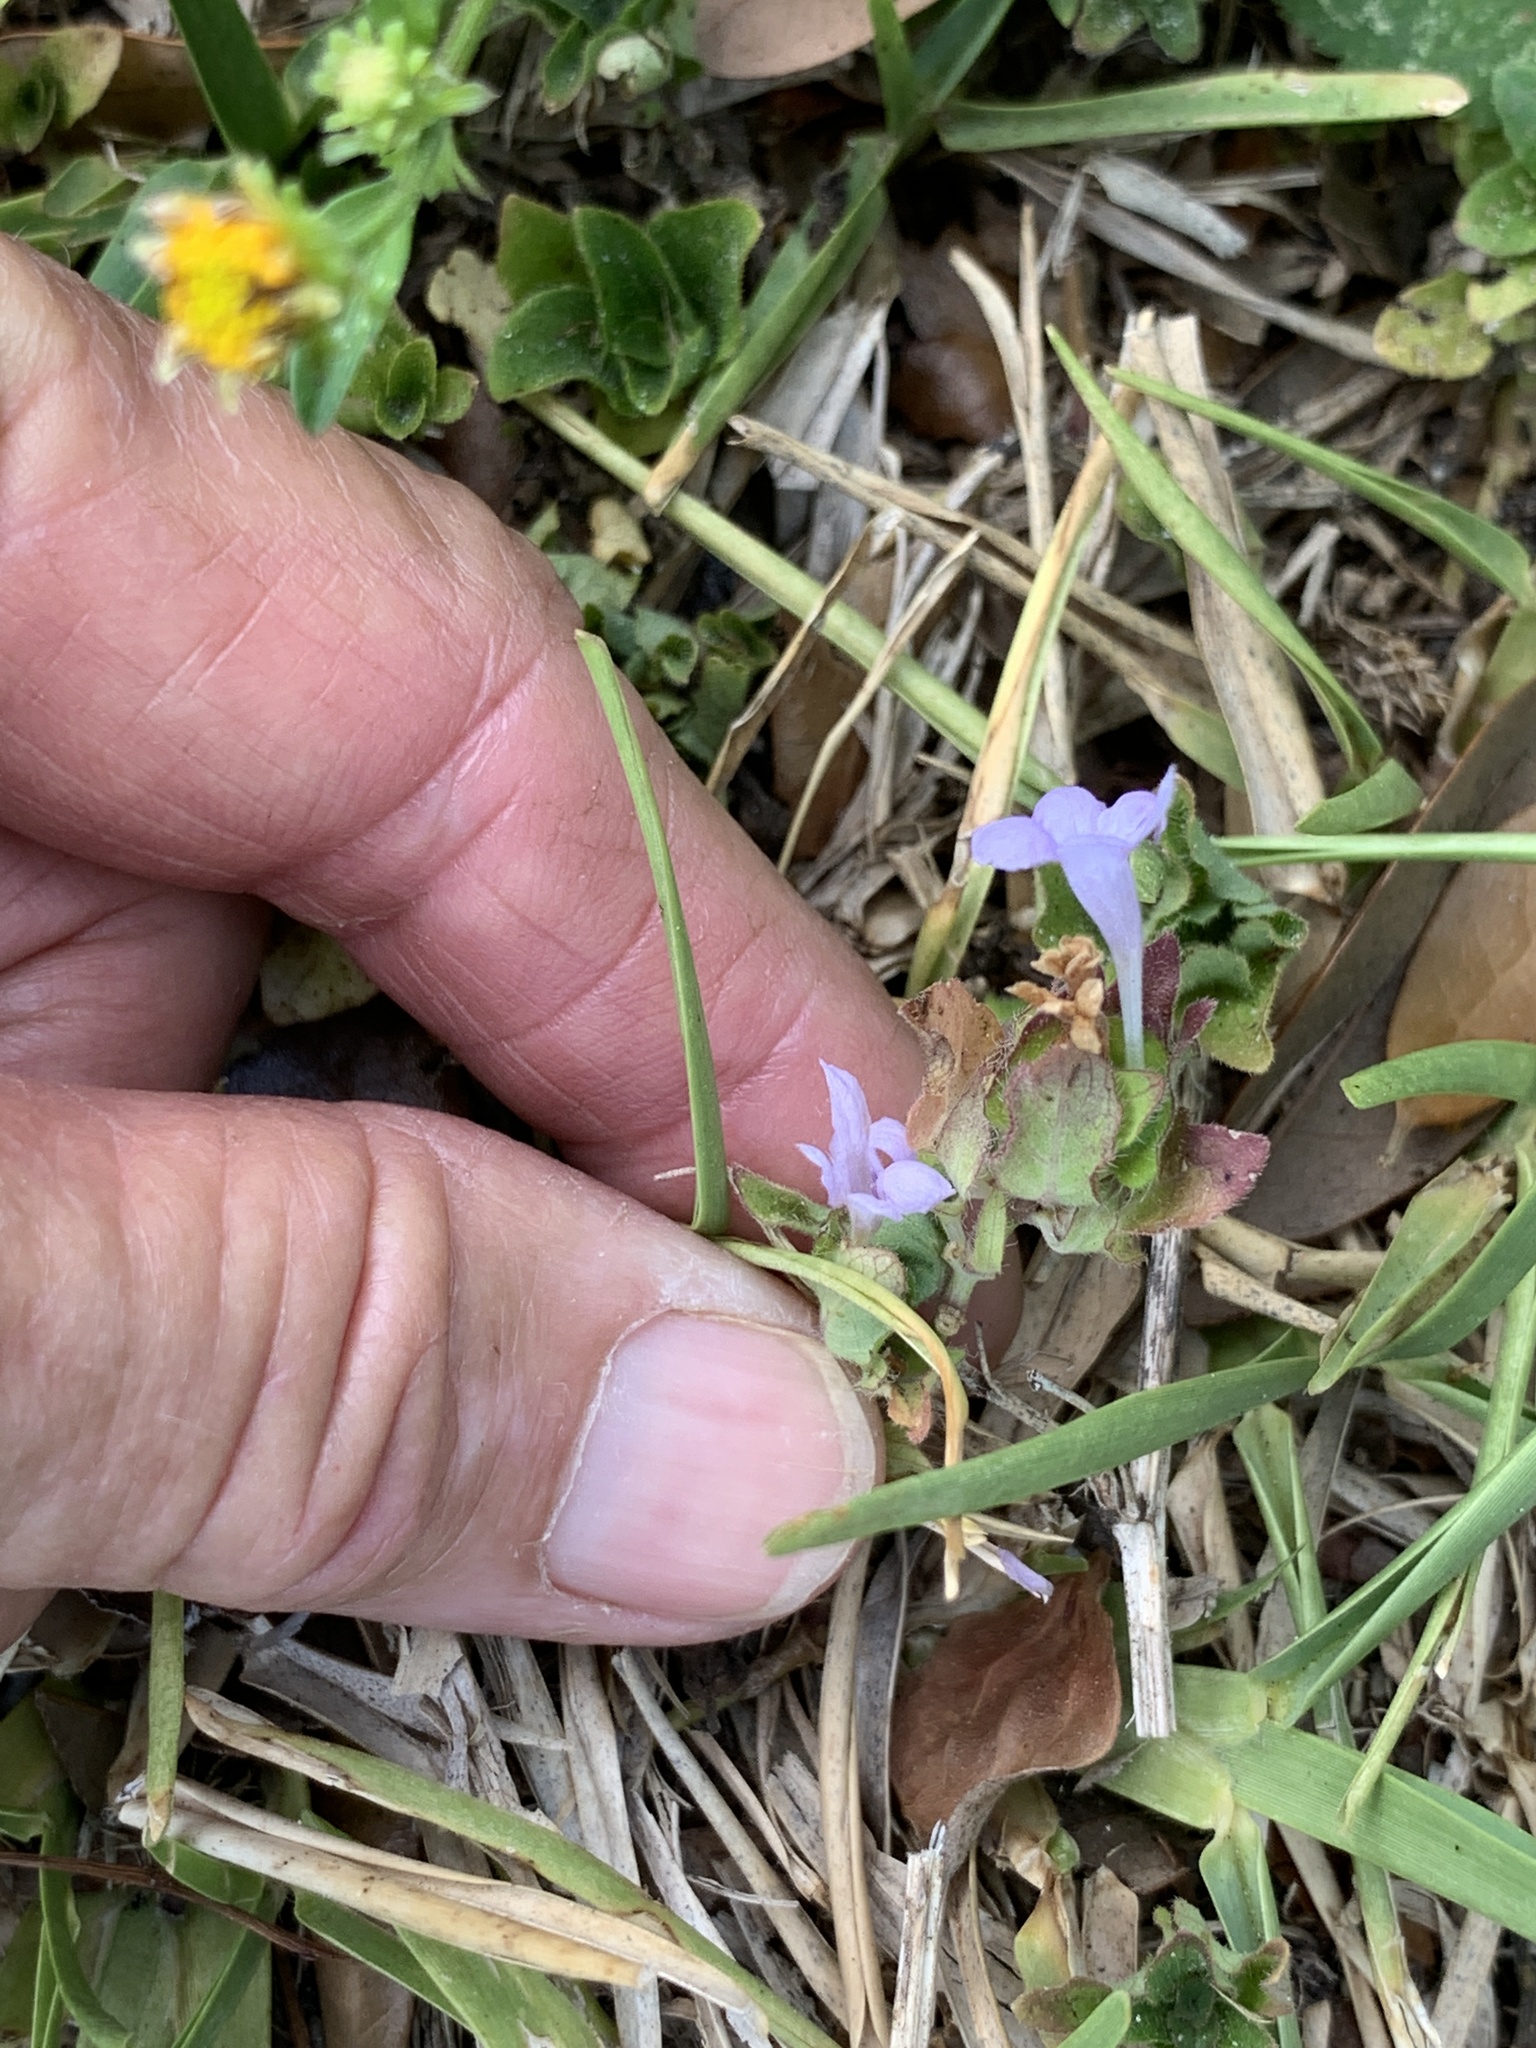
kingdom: Plantae
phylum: Tracheophyta
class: Magnoliopsida
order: Lamiales
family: Acanthaceae
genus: Ruellia
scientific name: Ruellia blechum
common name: Browne's blechum
